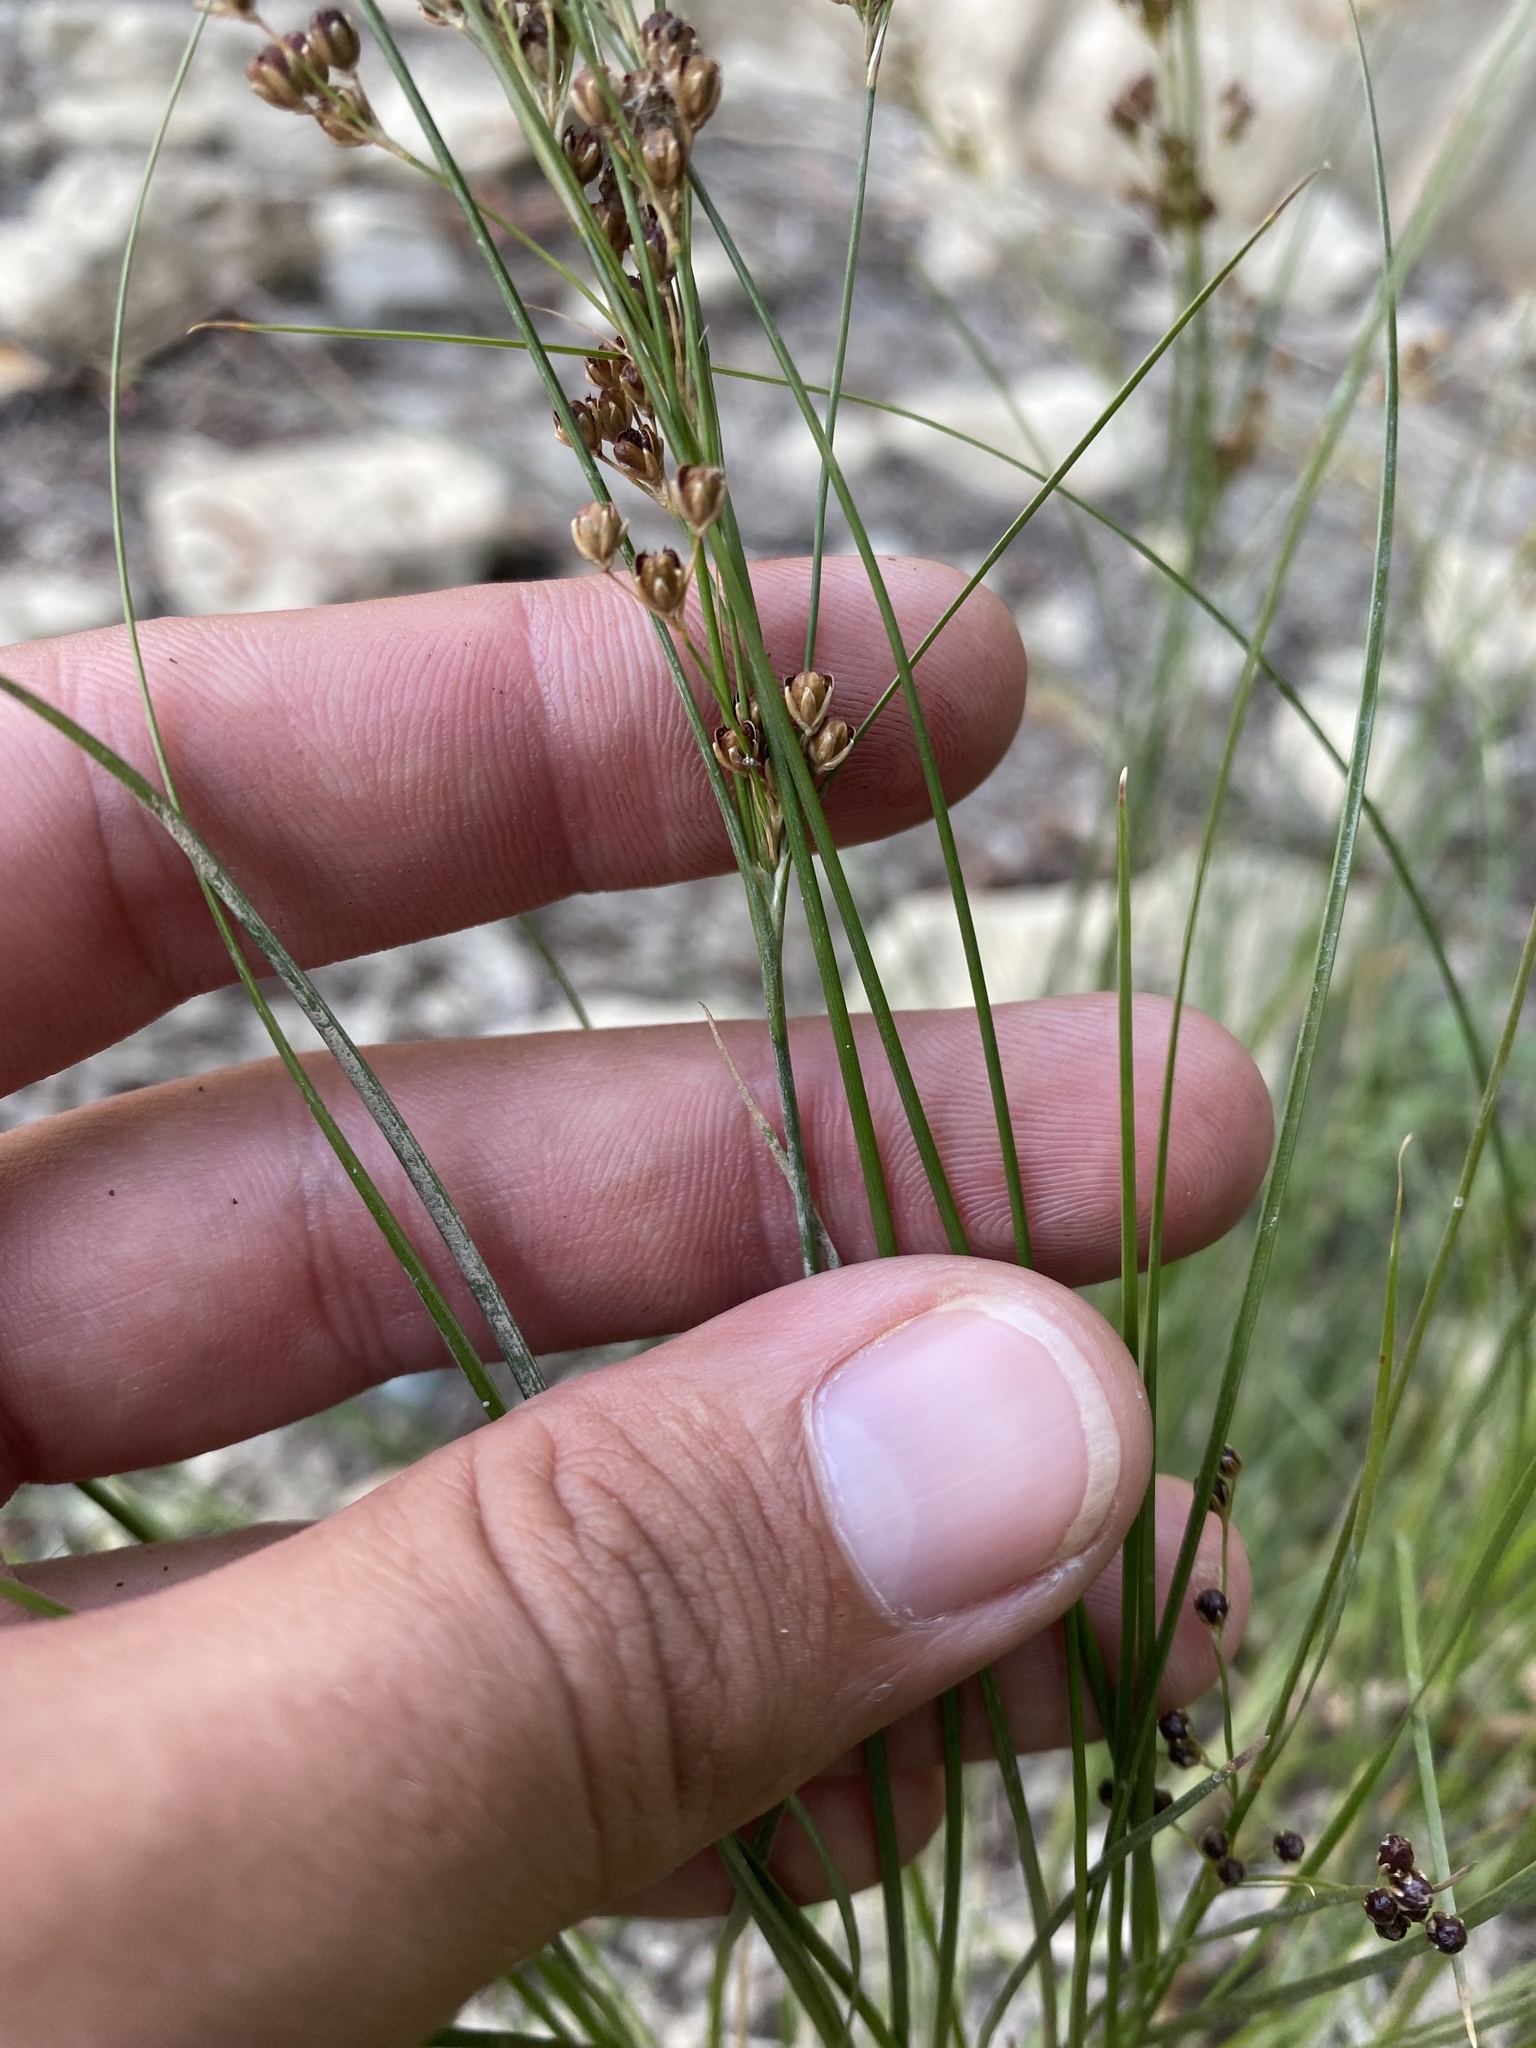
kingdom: Plantae
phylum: Tracheophyta
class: Polypodiopsida
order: Salviniales
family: Salviniaceae
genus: Salvinia
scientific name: Salvinia natans
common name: Floating fern
